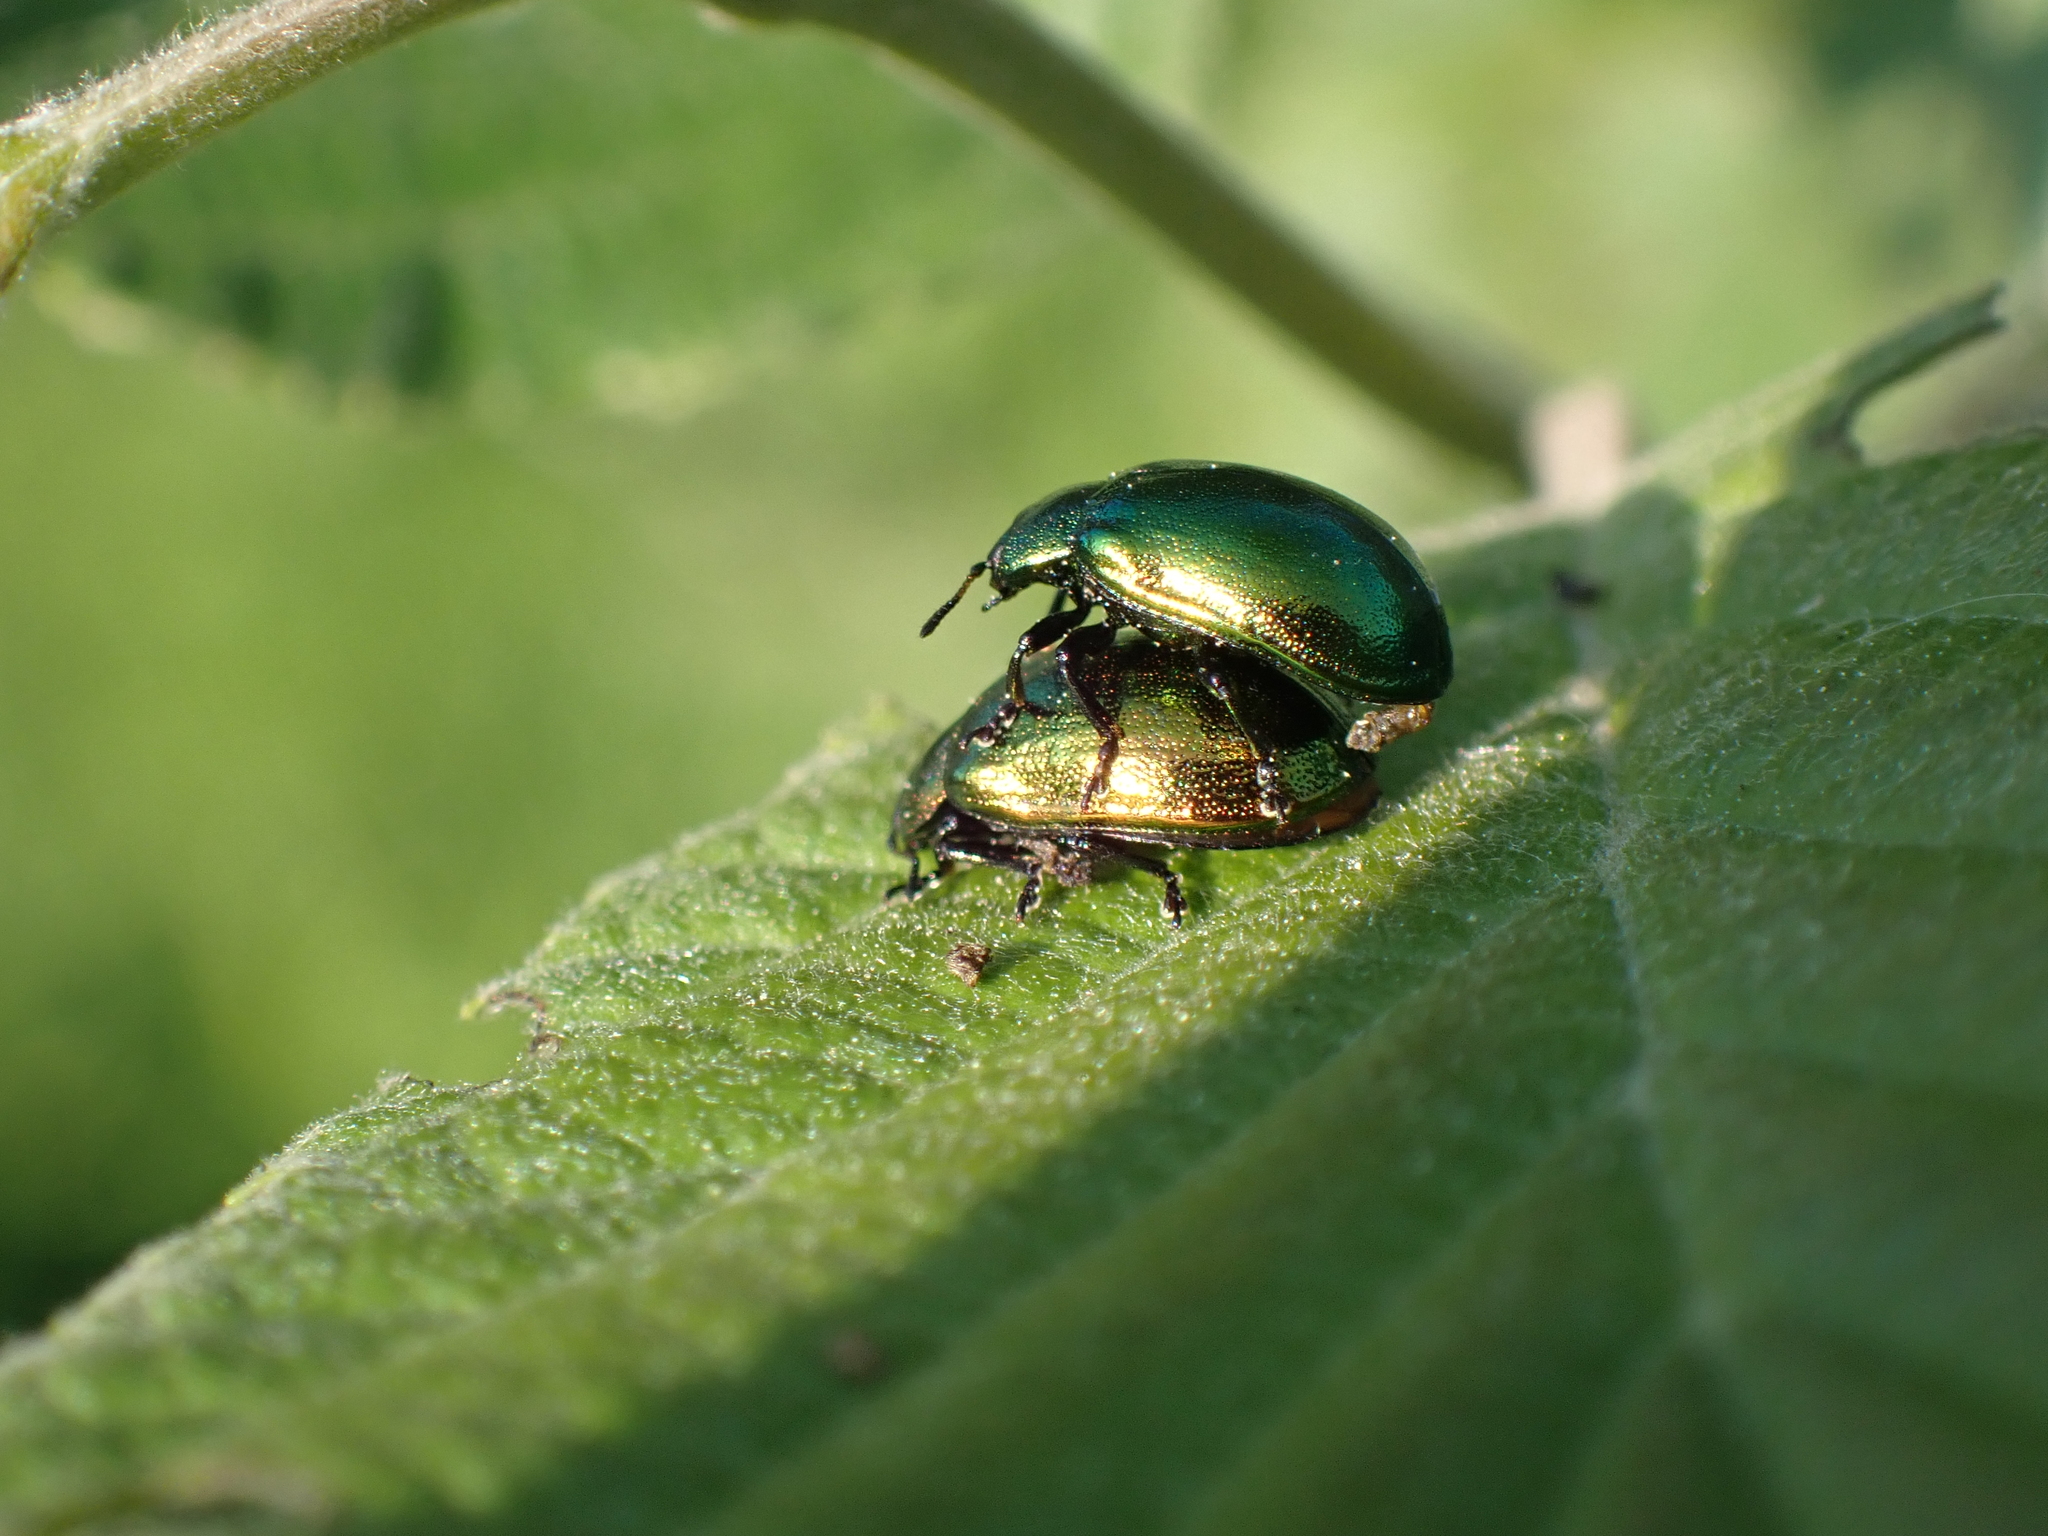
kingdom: Animalia
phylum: Arthropoda
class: Insecta
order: Coleoptera
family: Chrysomelidae
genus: Plagiosterna
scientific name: Plagiosterna aenea
